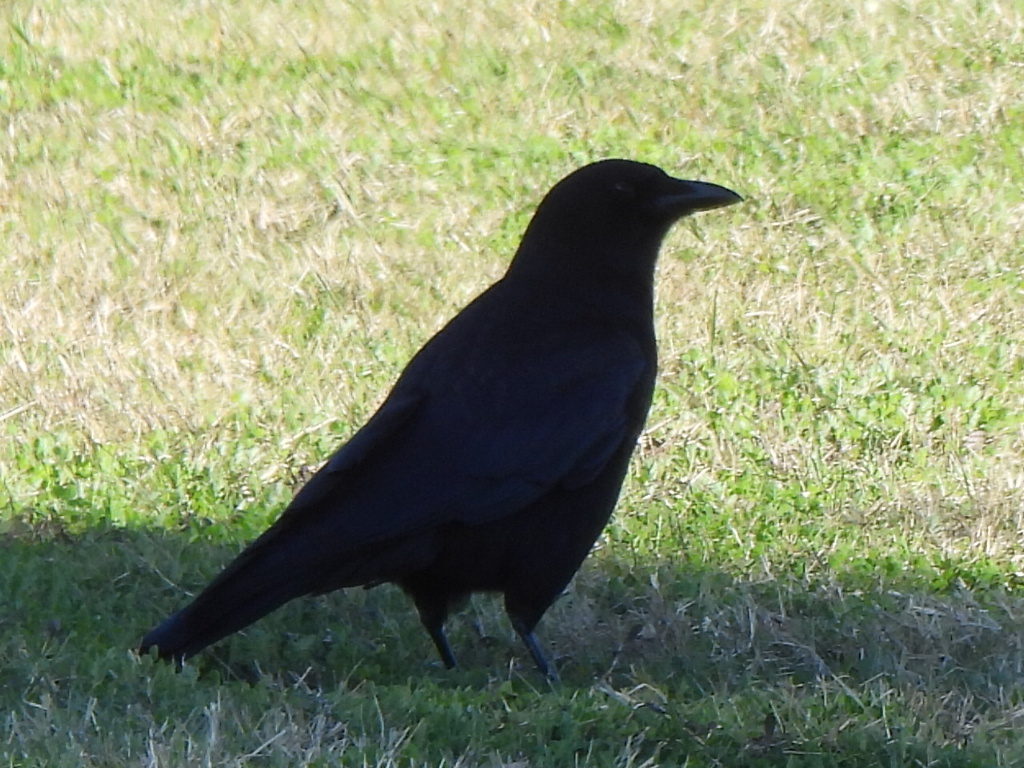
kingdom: Animalia
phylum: Chordata
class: Aves
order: Passeriformes
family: Corvidae
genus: Corvus
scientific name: Corvus brachyrhynchos
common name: American crow
